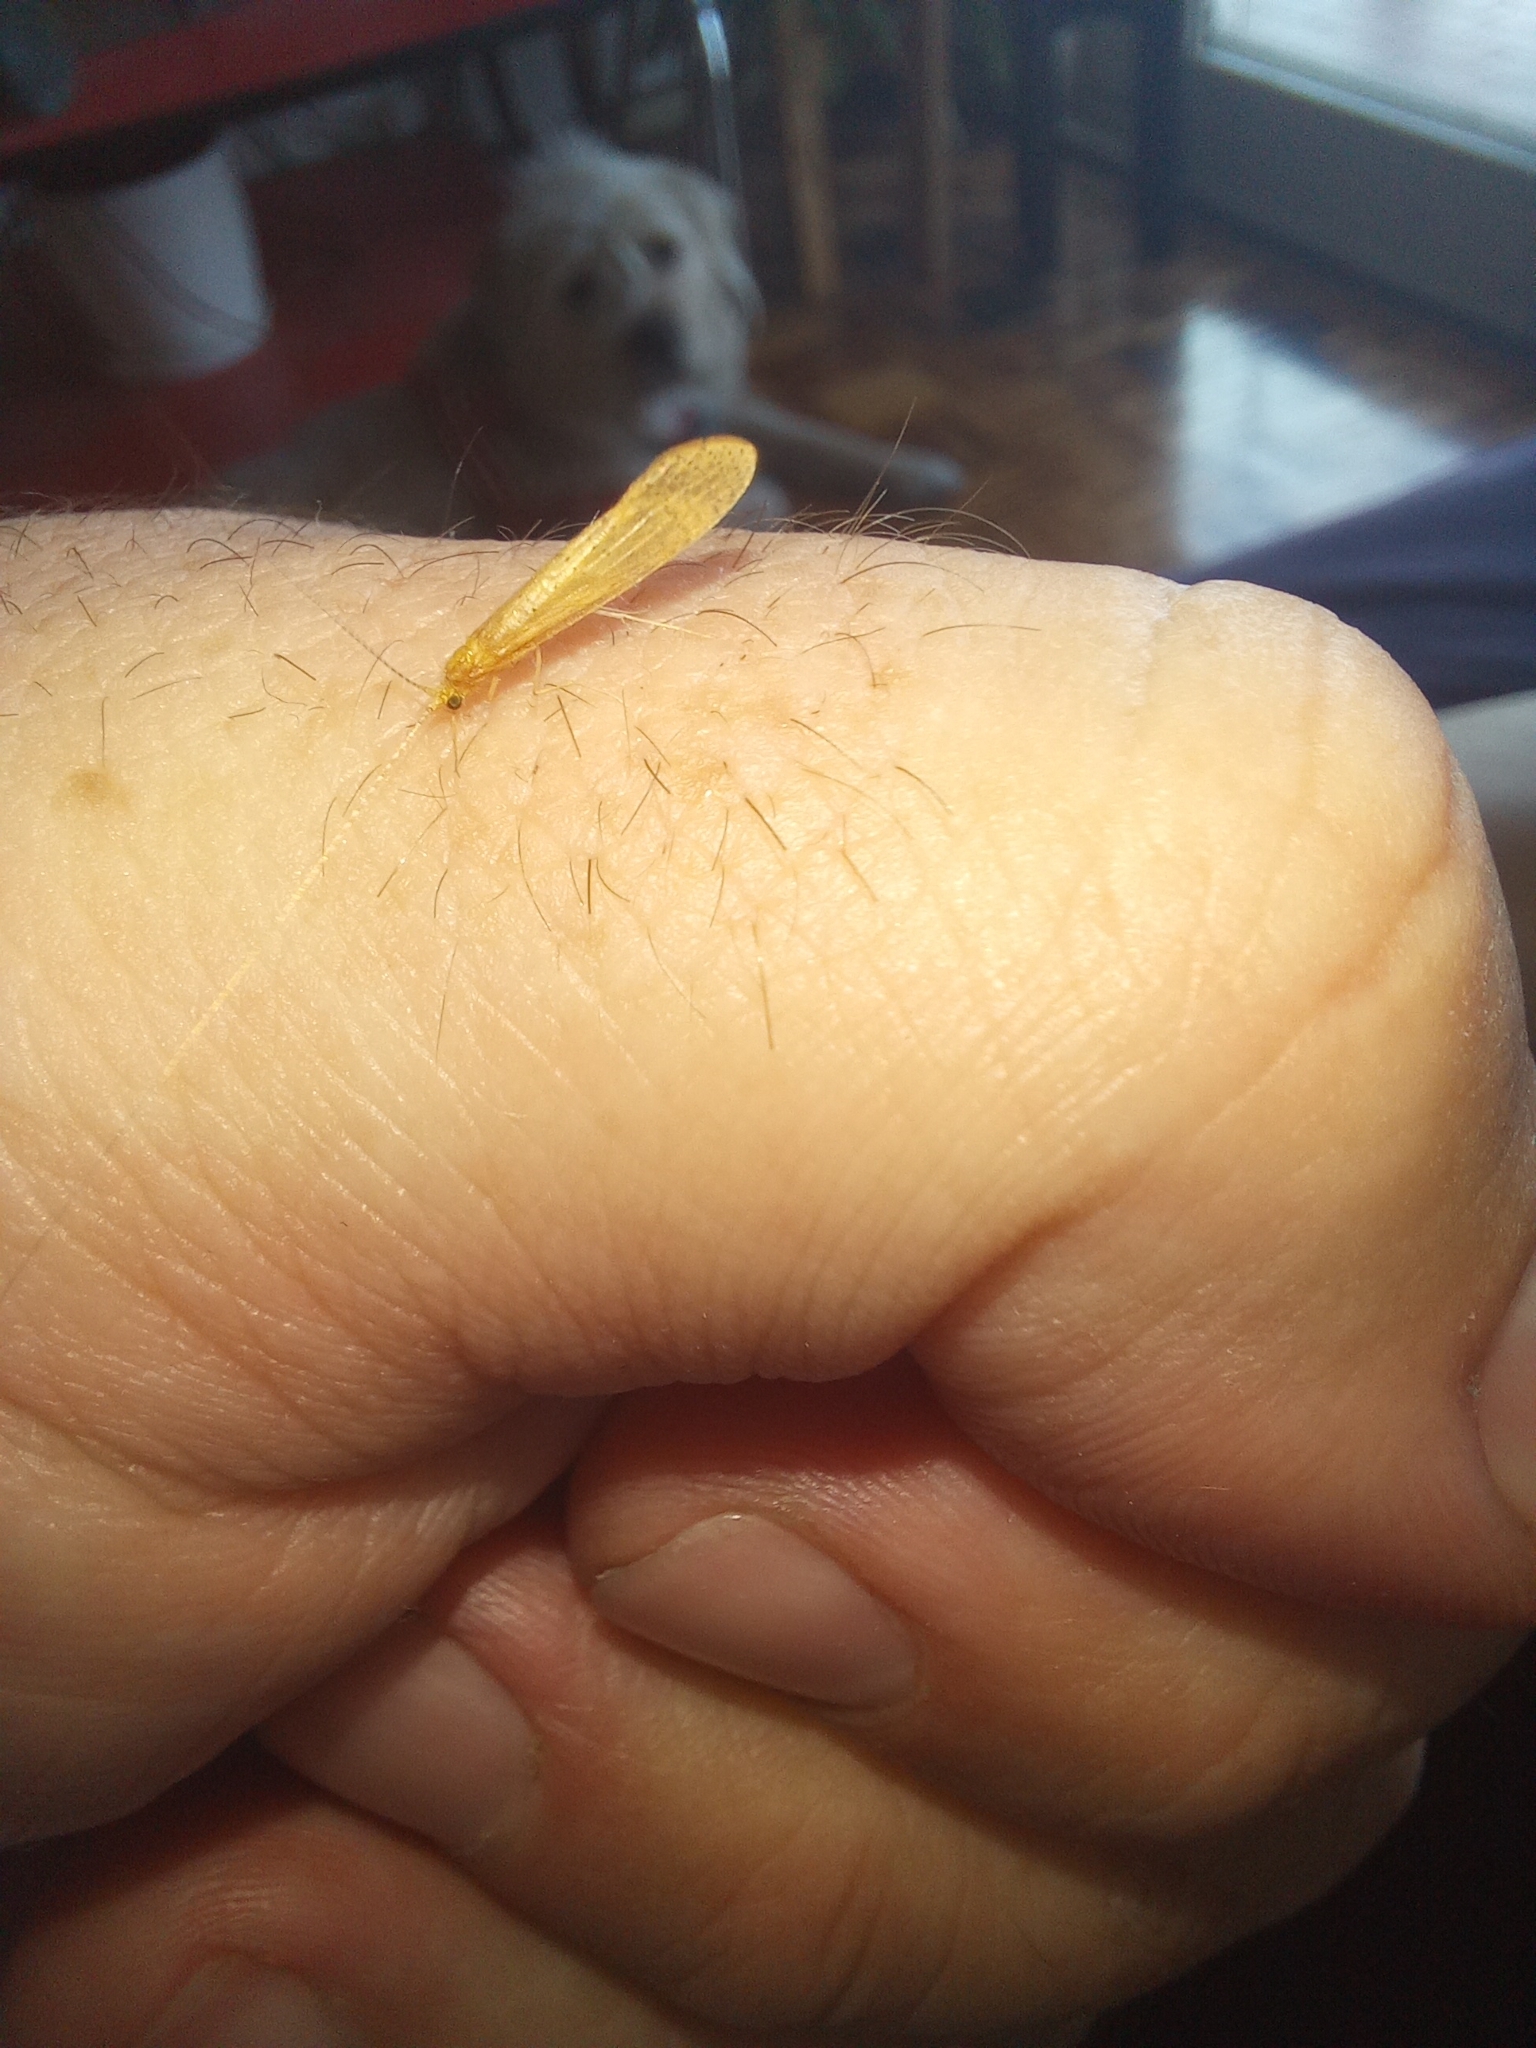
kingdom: Animalia
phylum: Arthropoda
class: Insecta
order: Trichoptera
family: Leptoceridae
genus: Nectopsyche
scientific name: Nectopsyche muhni
